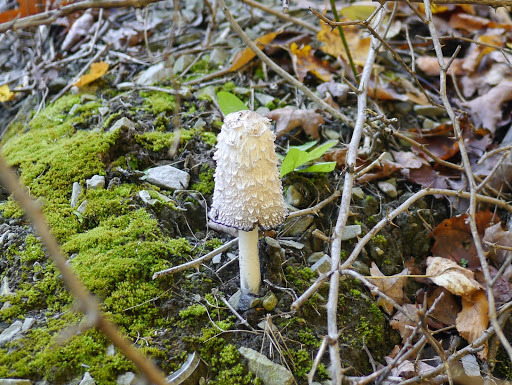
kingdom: Fungi
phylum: Basidiomycota
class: Agaricomycetes
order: Agaricales
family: Agaricaceae
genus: Coprinus
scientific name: Coprinus comatus
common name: Lawyer's wig
